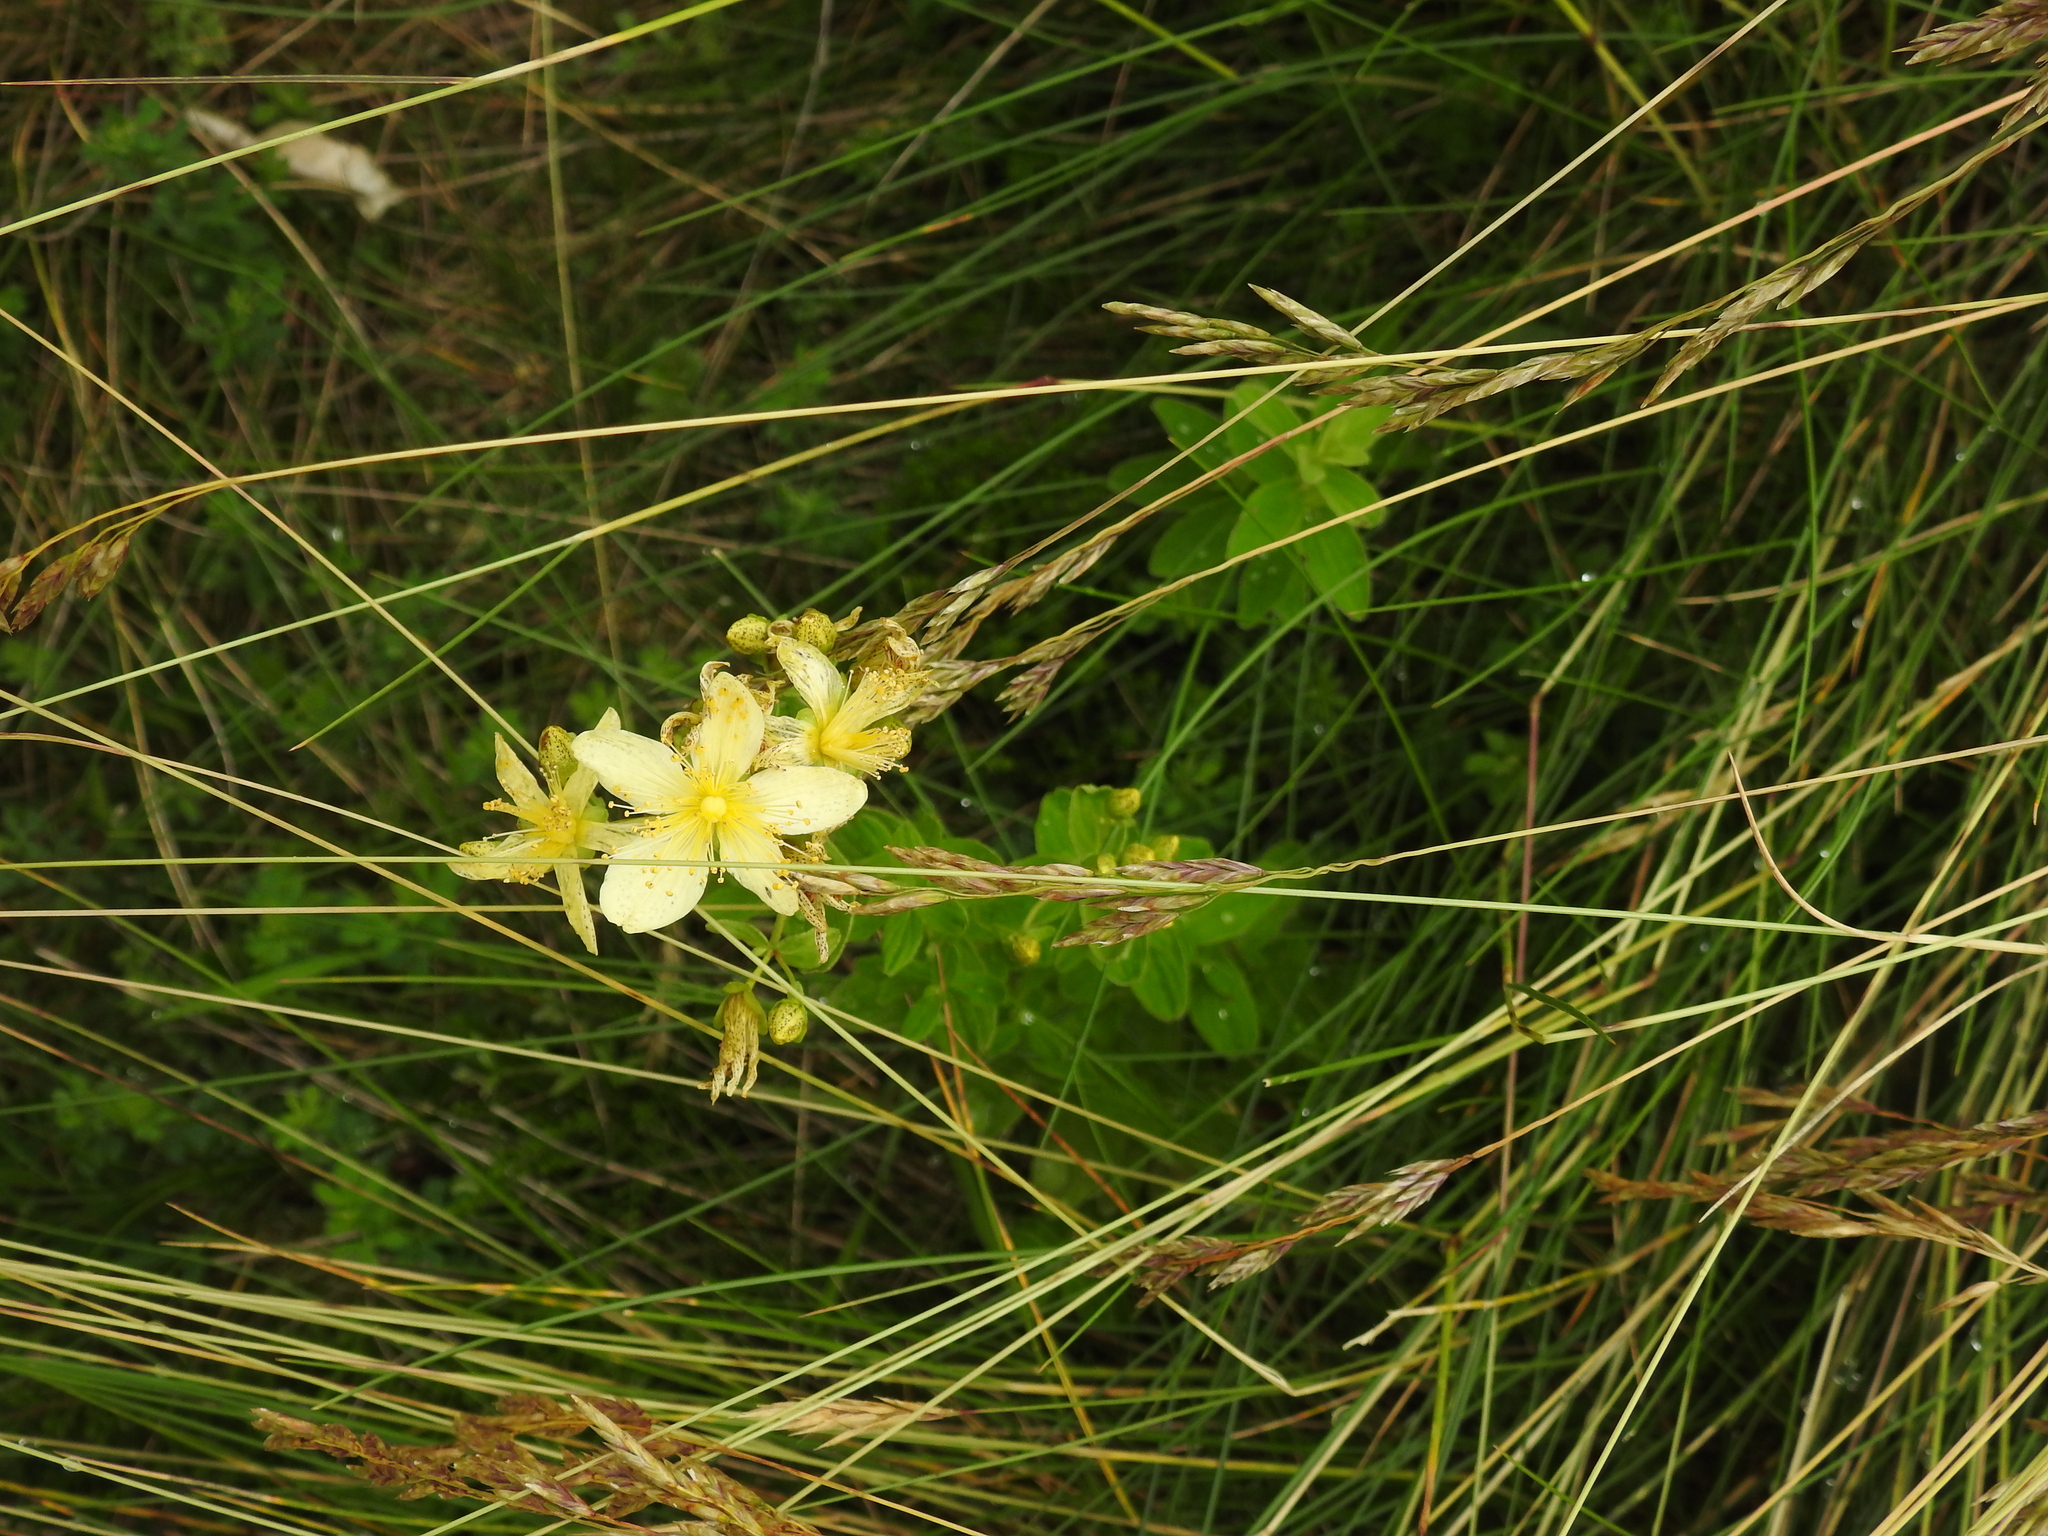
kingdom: Plantae
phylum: Tracheophyta
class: Magnoliopsida
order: Malpighiales
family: Hypericaceae
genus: Hypericum
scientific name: Hypericum maculatum
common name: Imperforate st. john's-wort
